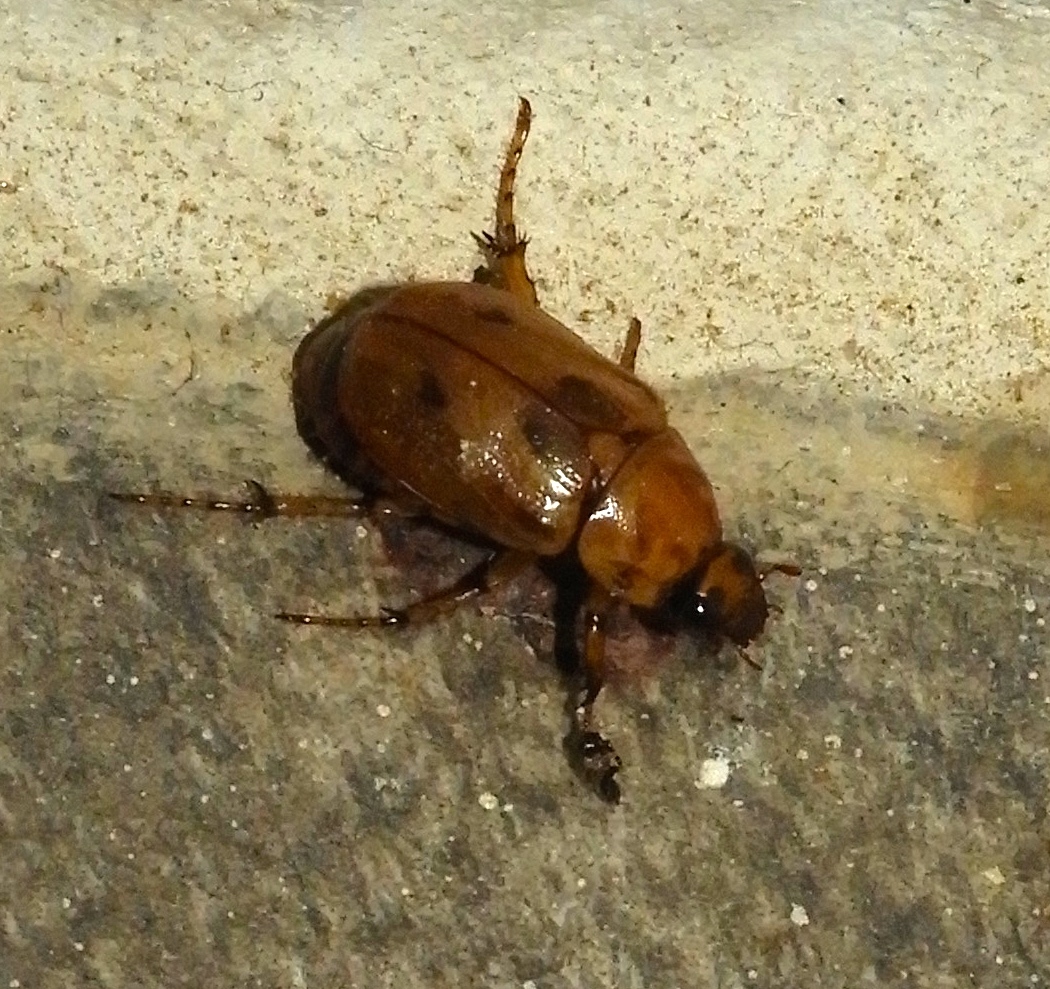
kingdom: Animalia
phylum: Arthropoda
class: Insecta
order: Coleoptera
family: Scarabaeidae
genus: Cyclocephala
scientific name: Cyclocephala
